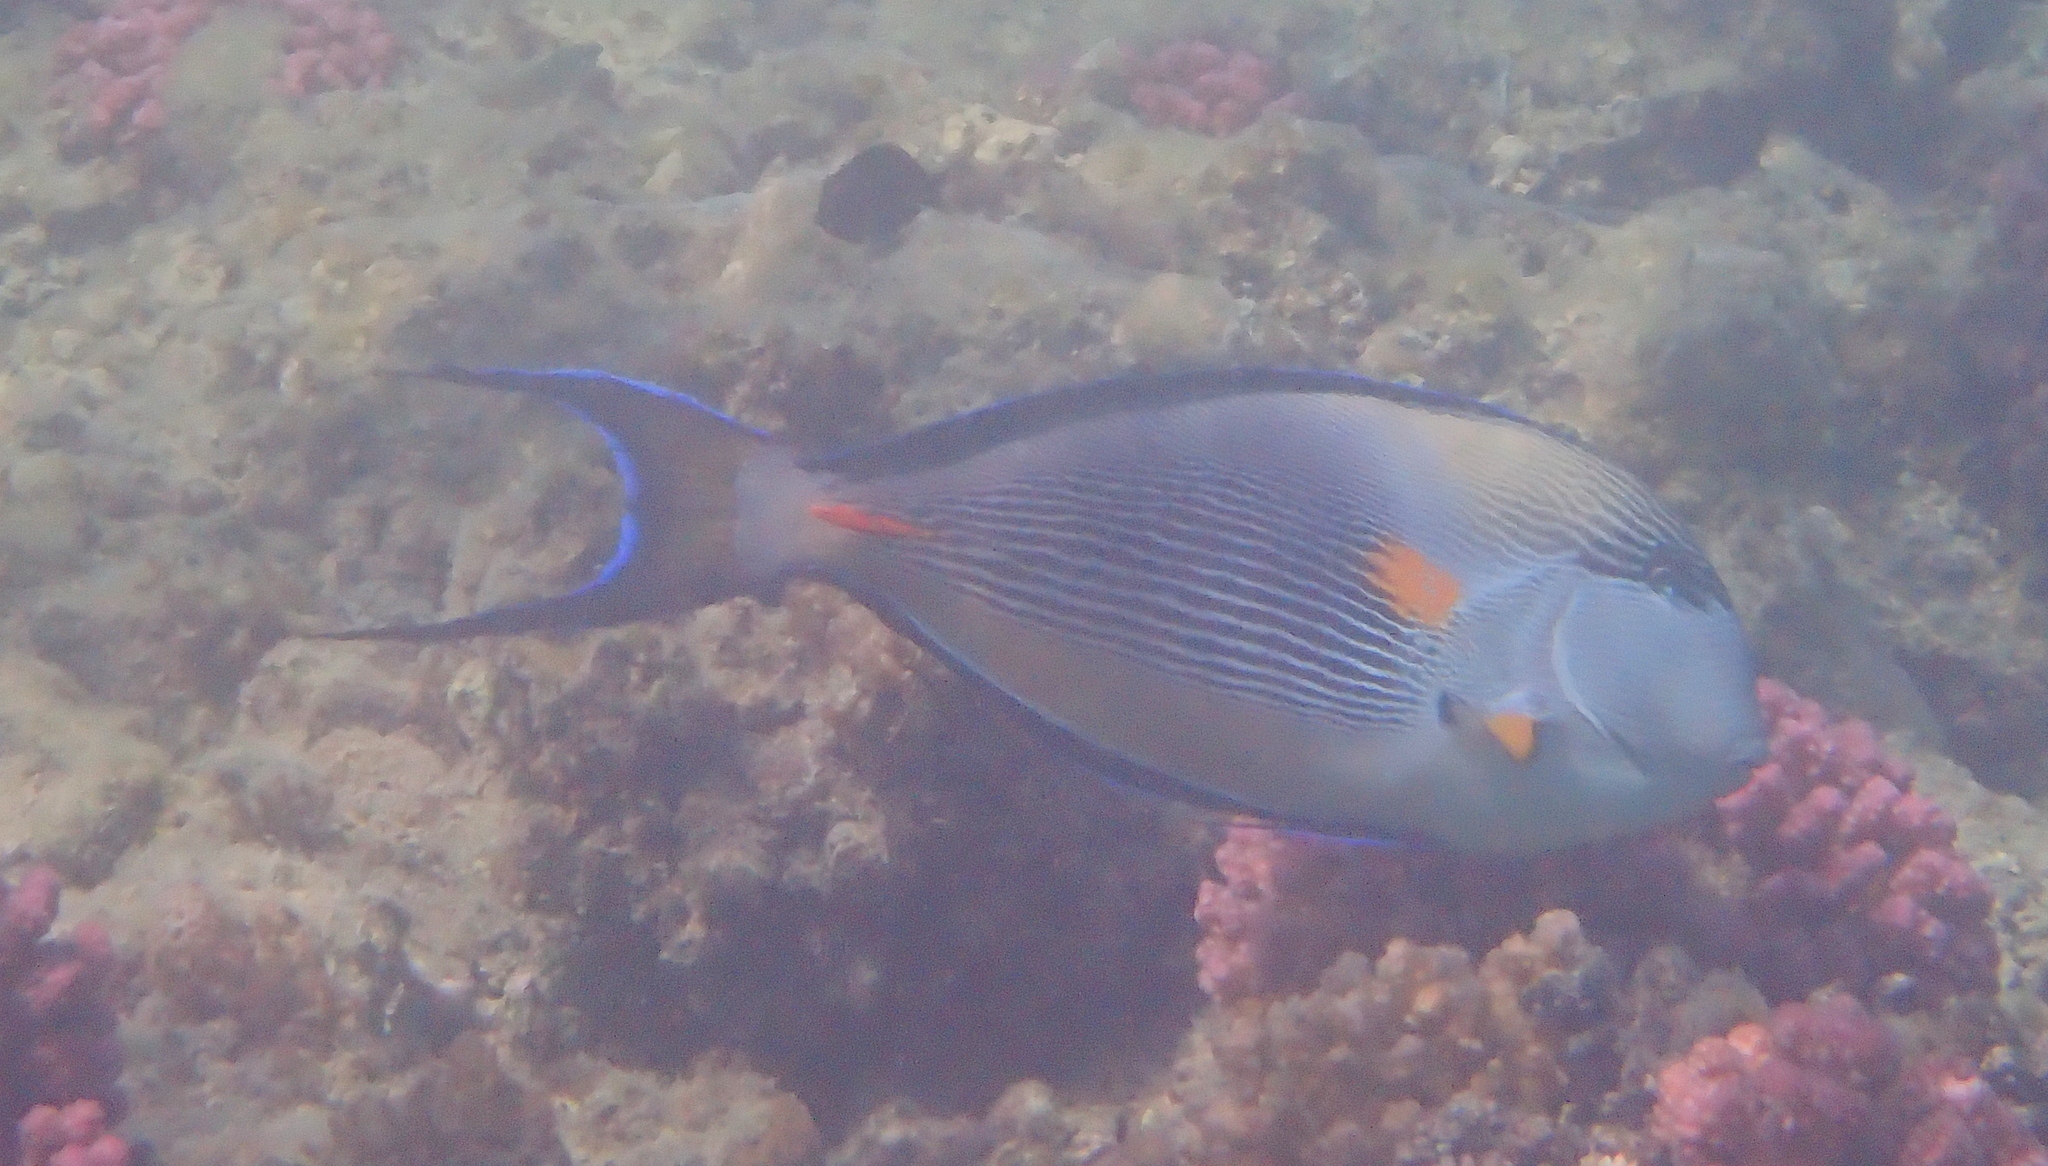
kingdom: Animalia
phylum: Chordata
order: Perciformes
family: Acanthuridae
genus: Acanthurus
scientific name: Acanthurus sohal
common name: Red sea surgeonfish
